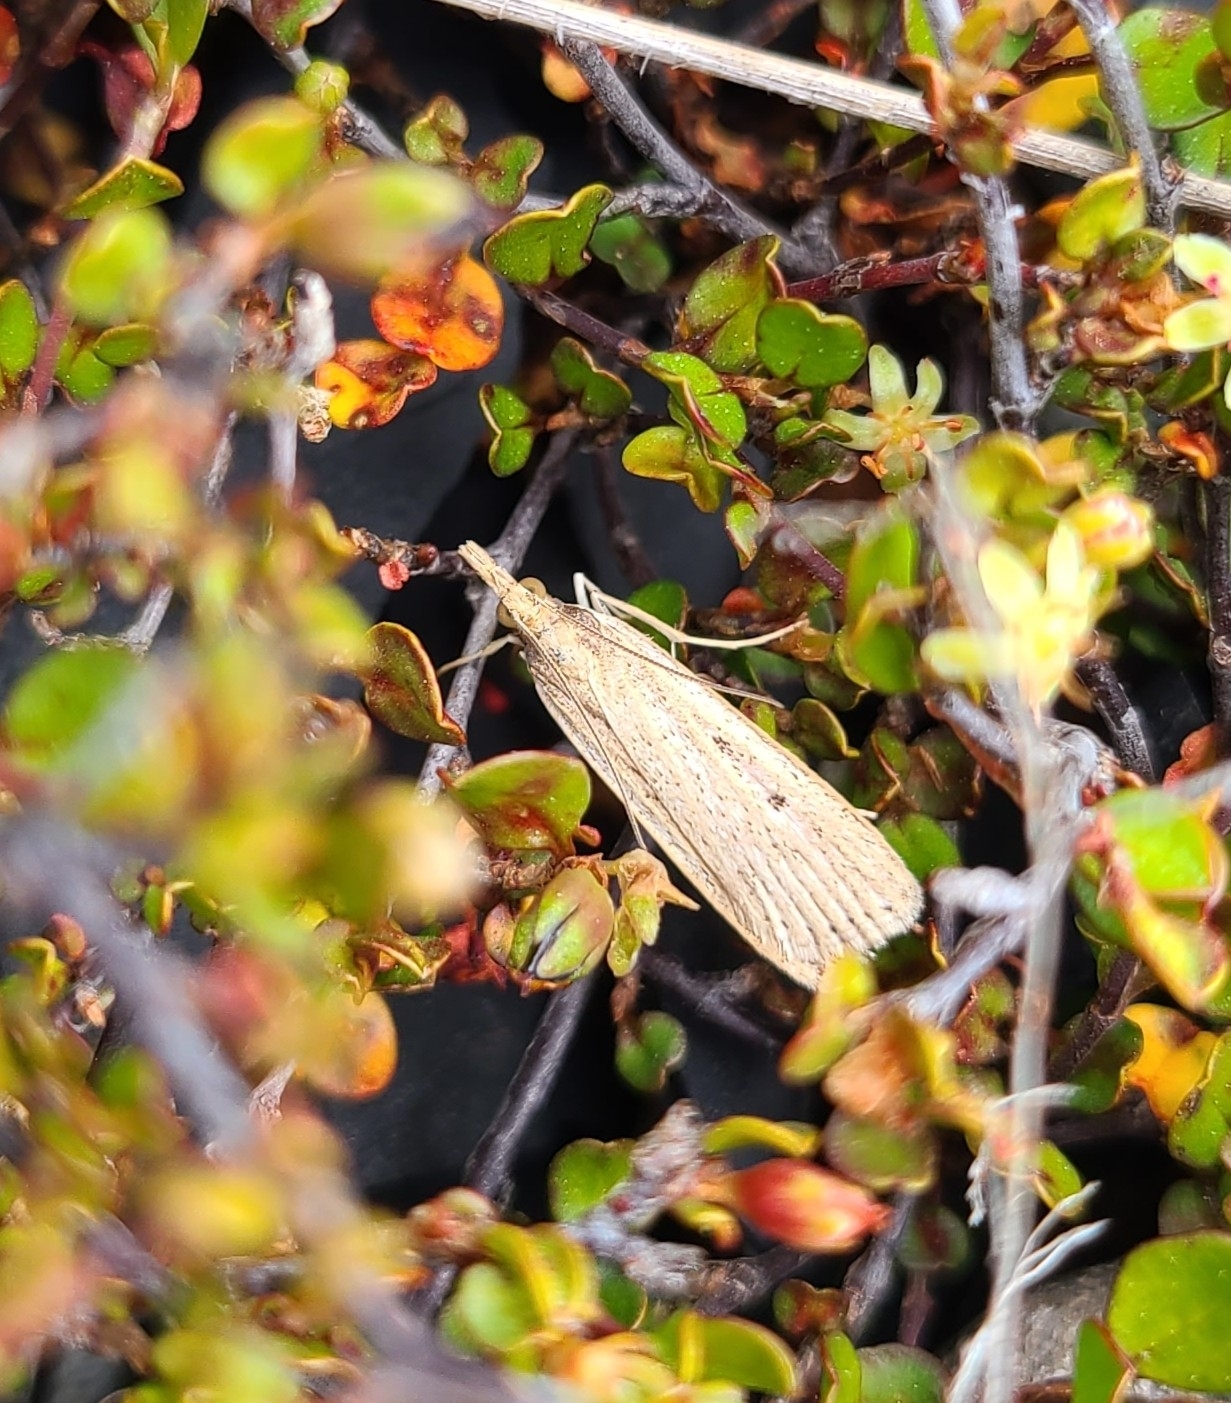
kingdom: Animalia
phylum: Arthropoda
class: Insecta
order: Lepidoptera
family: Crambidae
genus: Eudonia
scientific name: Eudonia sabulosella
